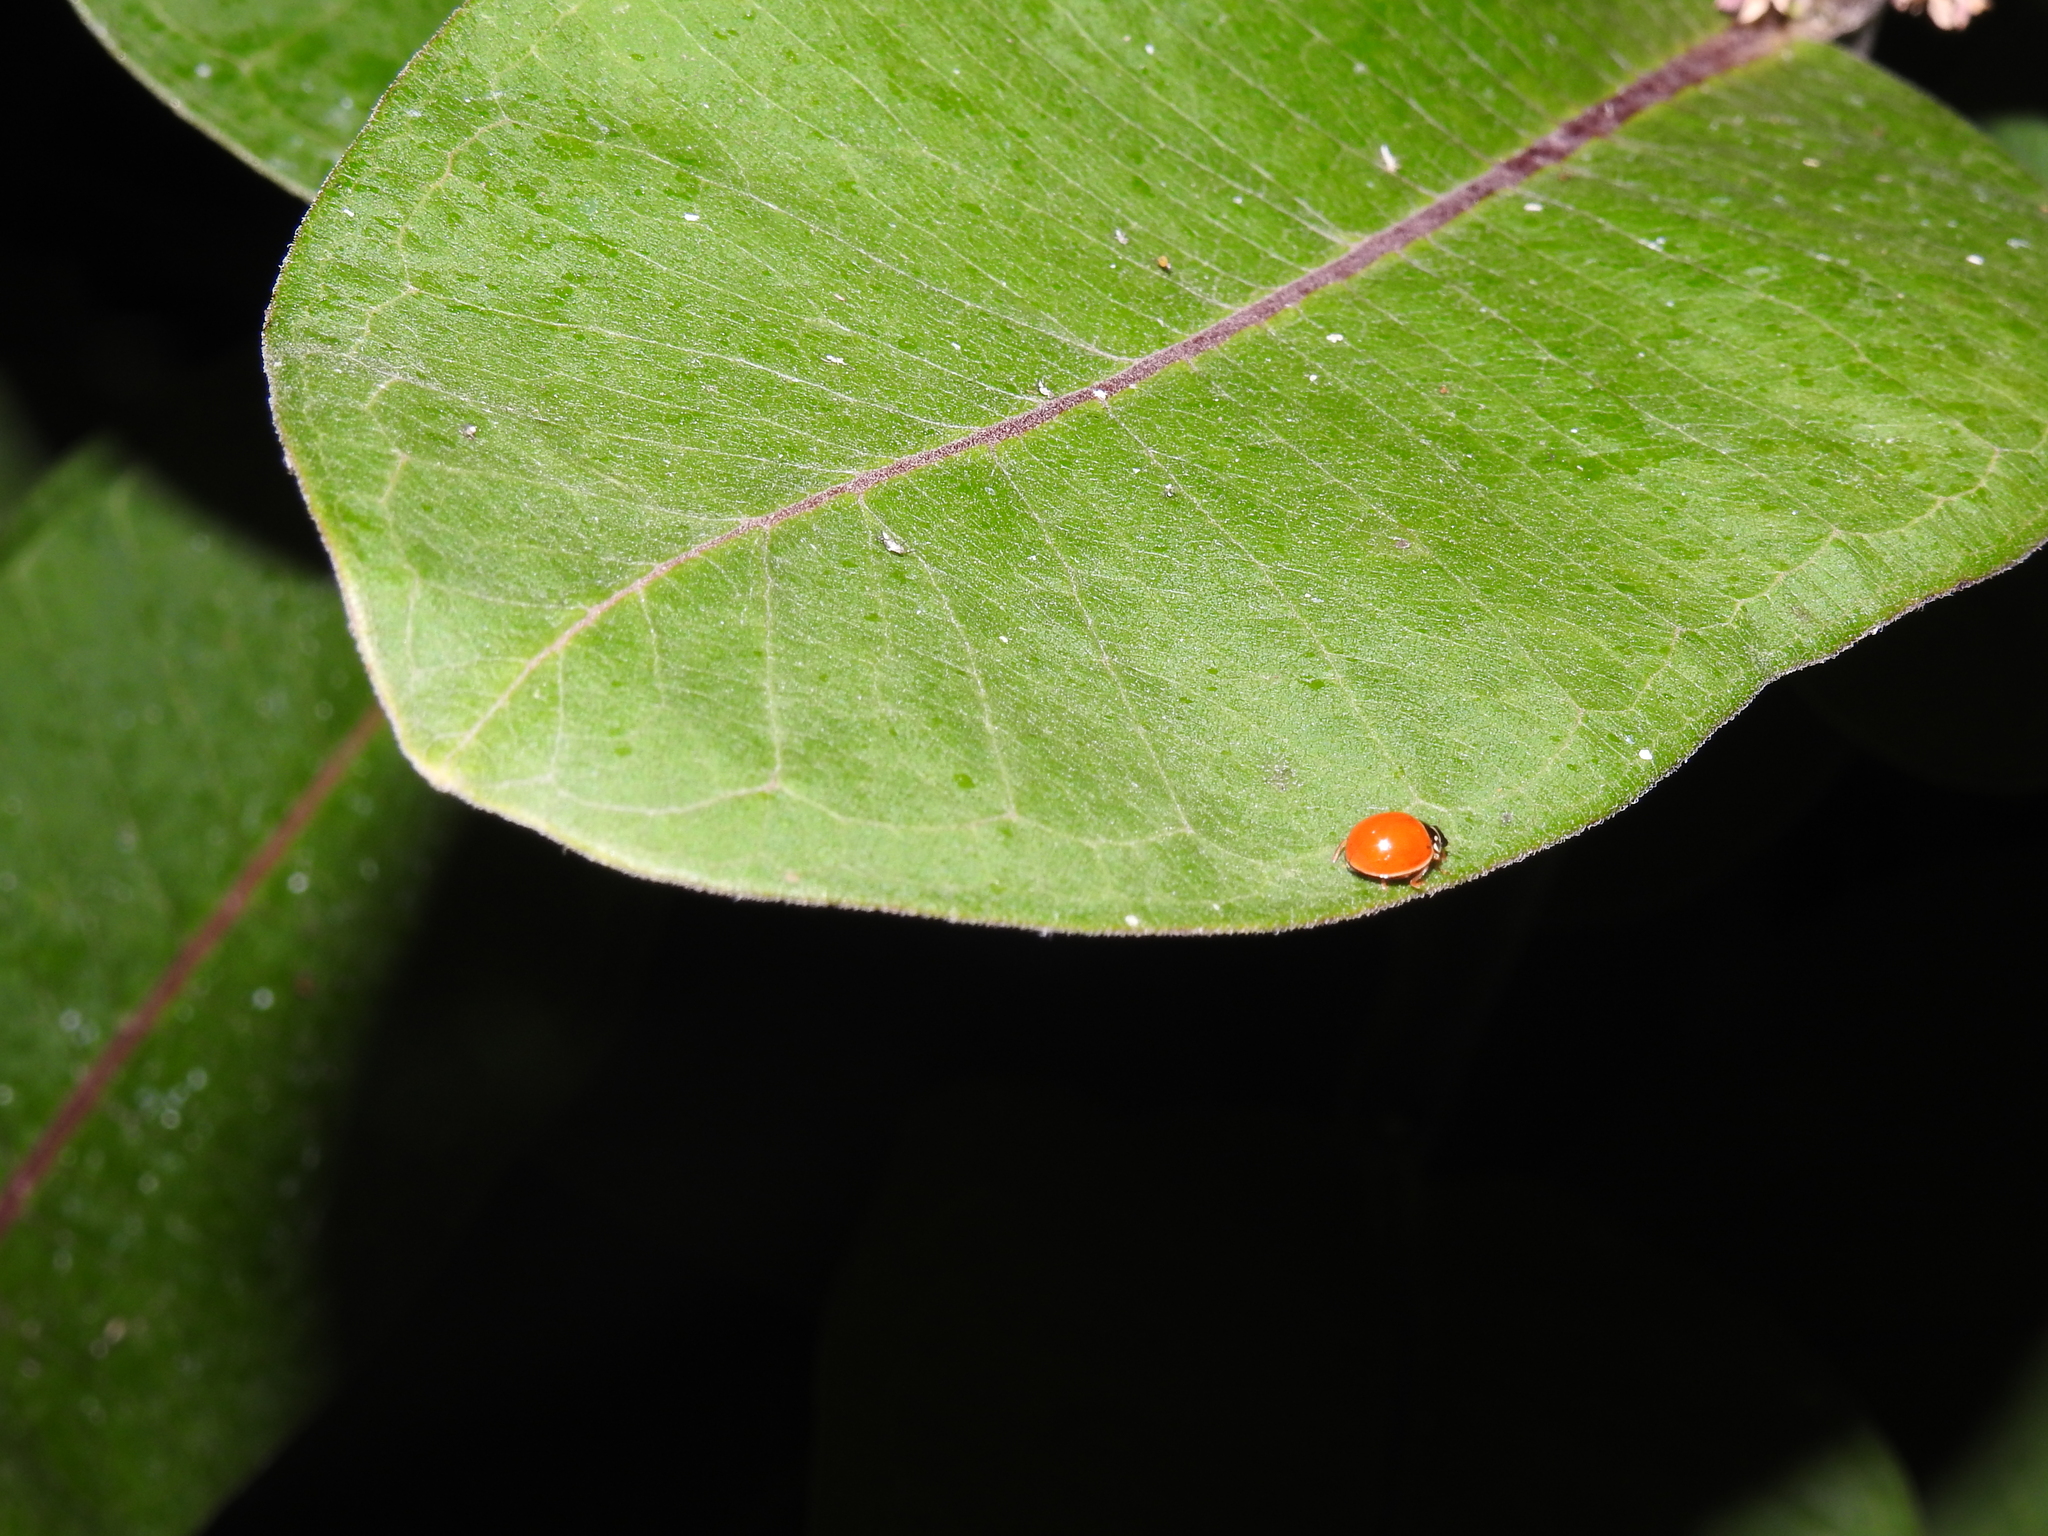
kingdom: Animalia
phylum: Arthropoda
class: Insecta
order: Coleoptera
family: Coccinellidae
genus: Cycloneda
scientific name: Cycloneda munda
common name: Polished lady beetle
